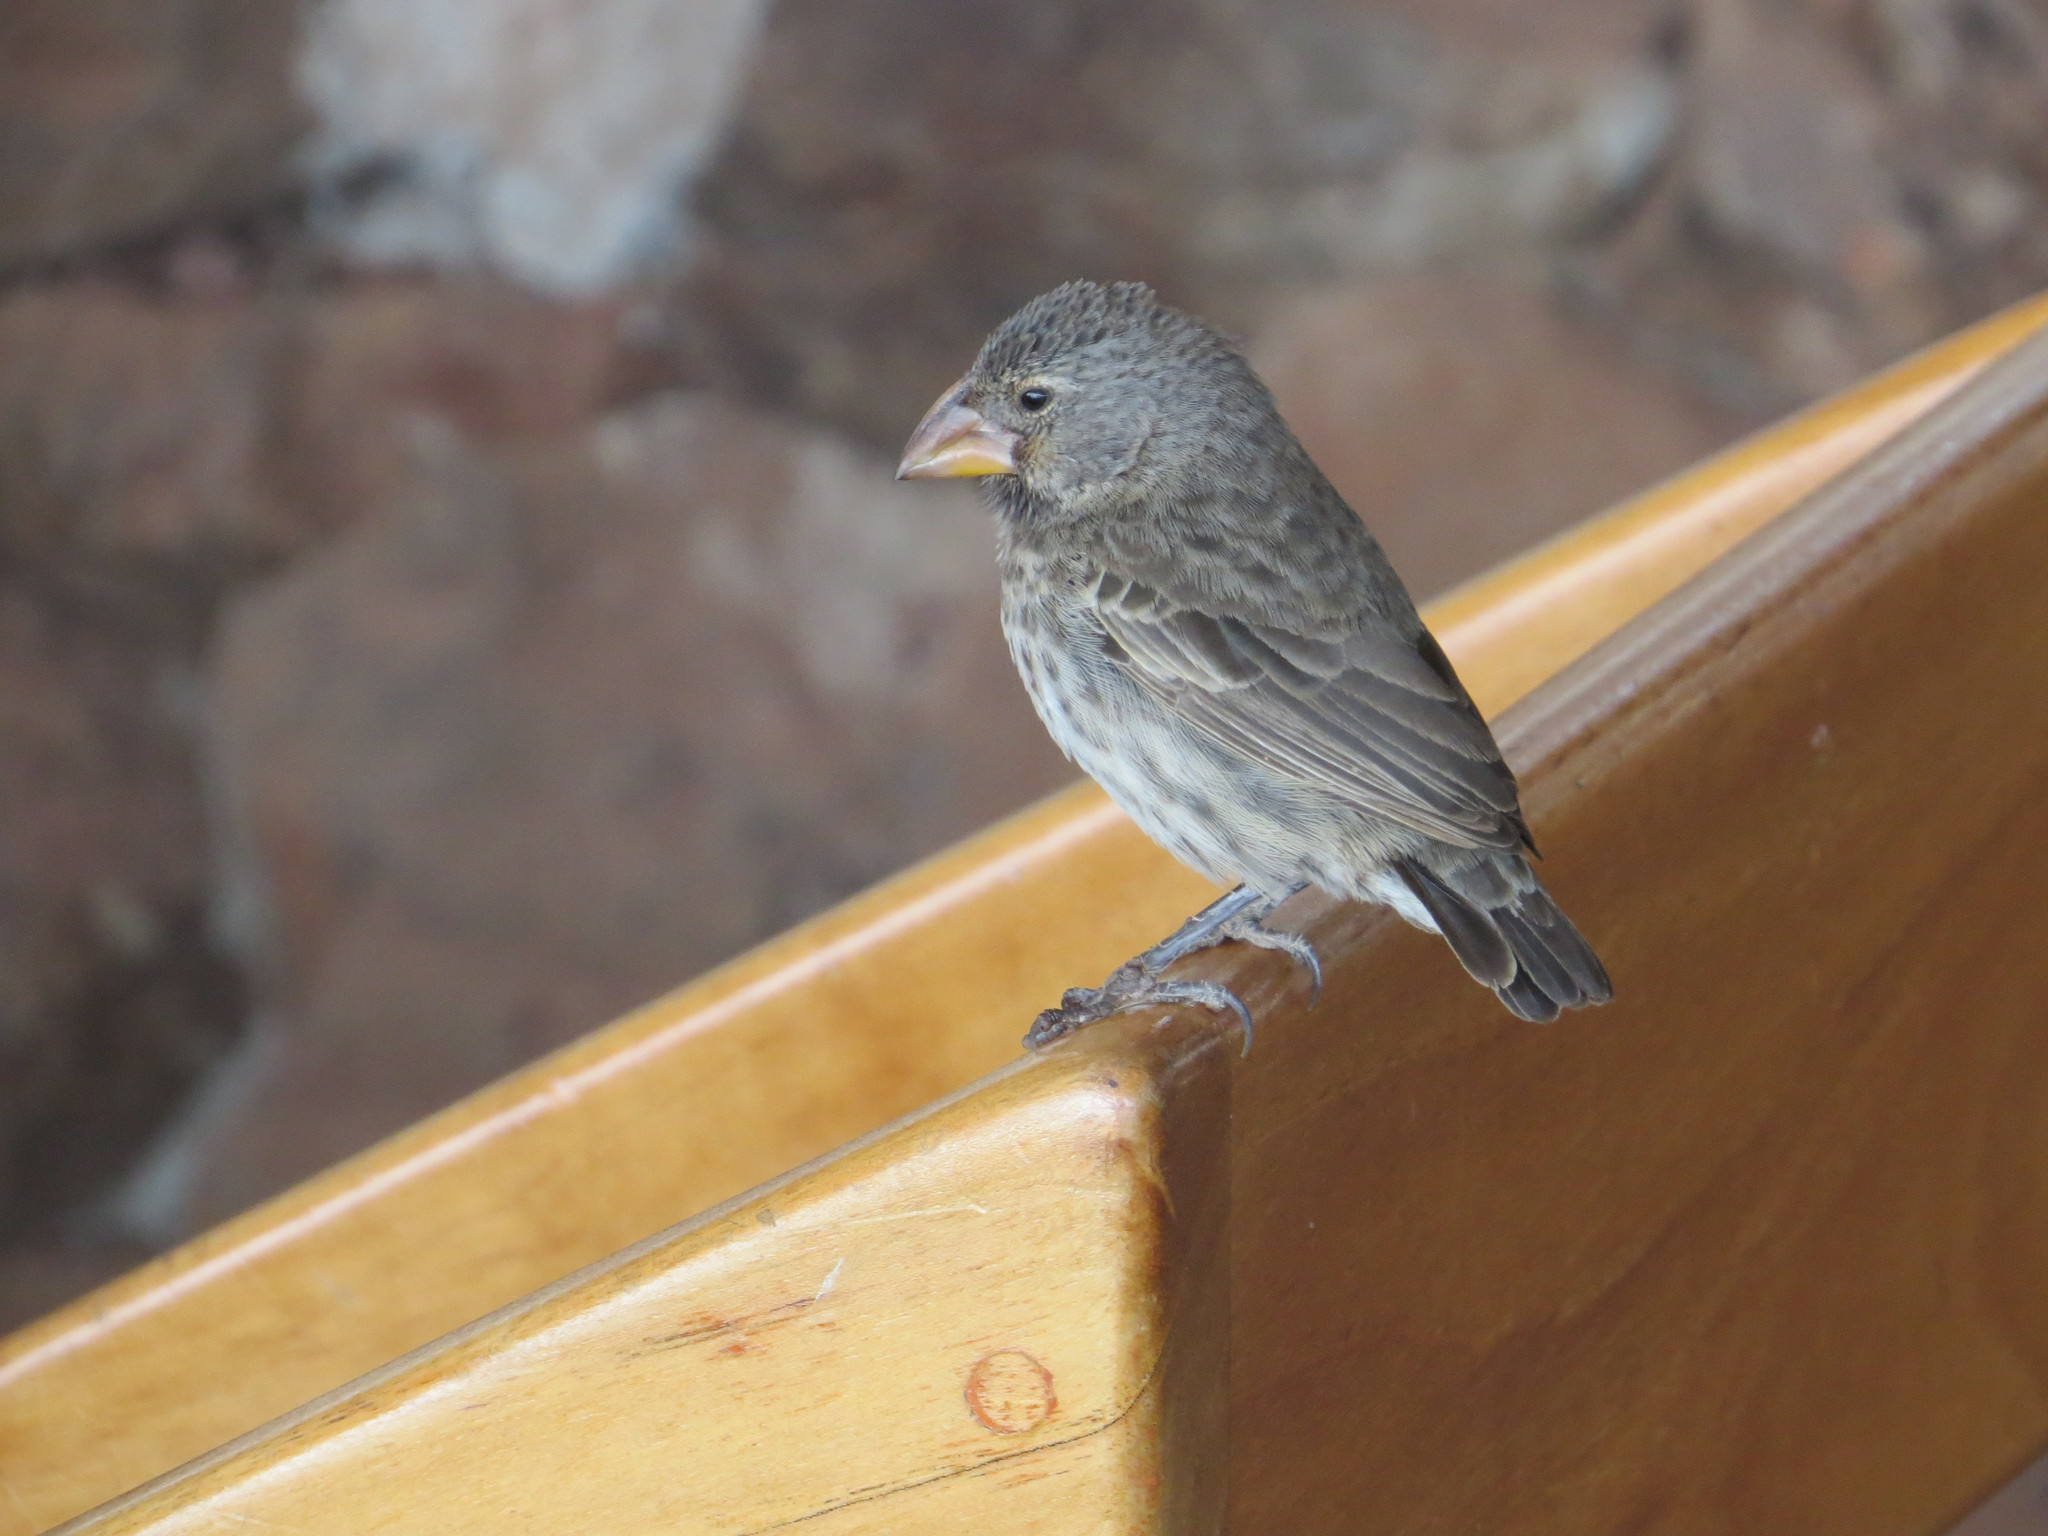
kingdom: Animalia
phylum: Chordata
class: Aves
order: Passeriformes
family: Thraupidae
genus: Geospiza
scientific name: Geospiza fortis
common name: Medium ground finch
